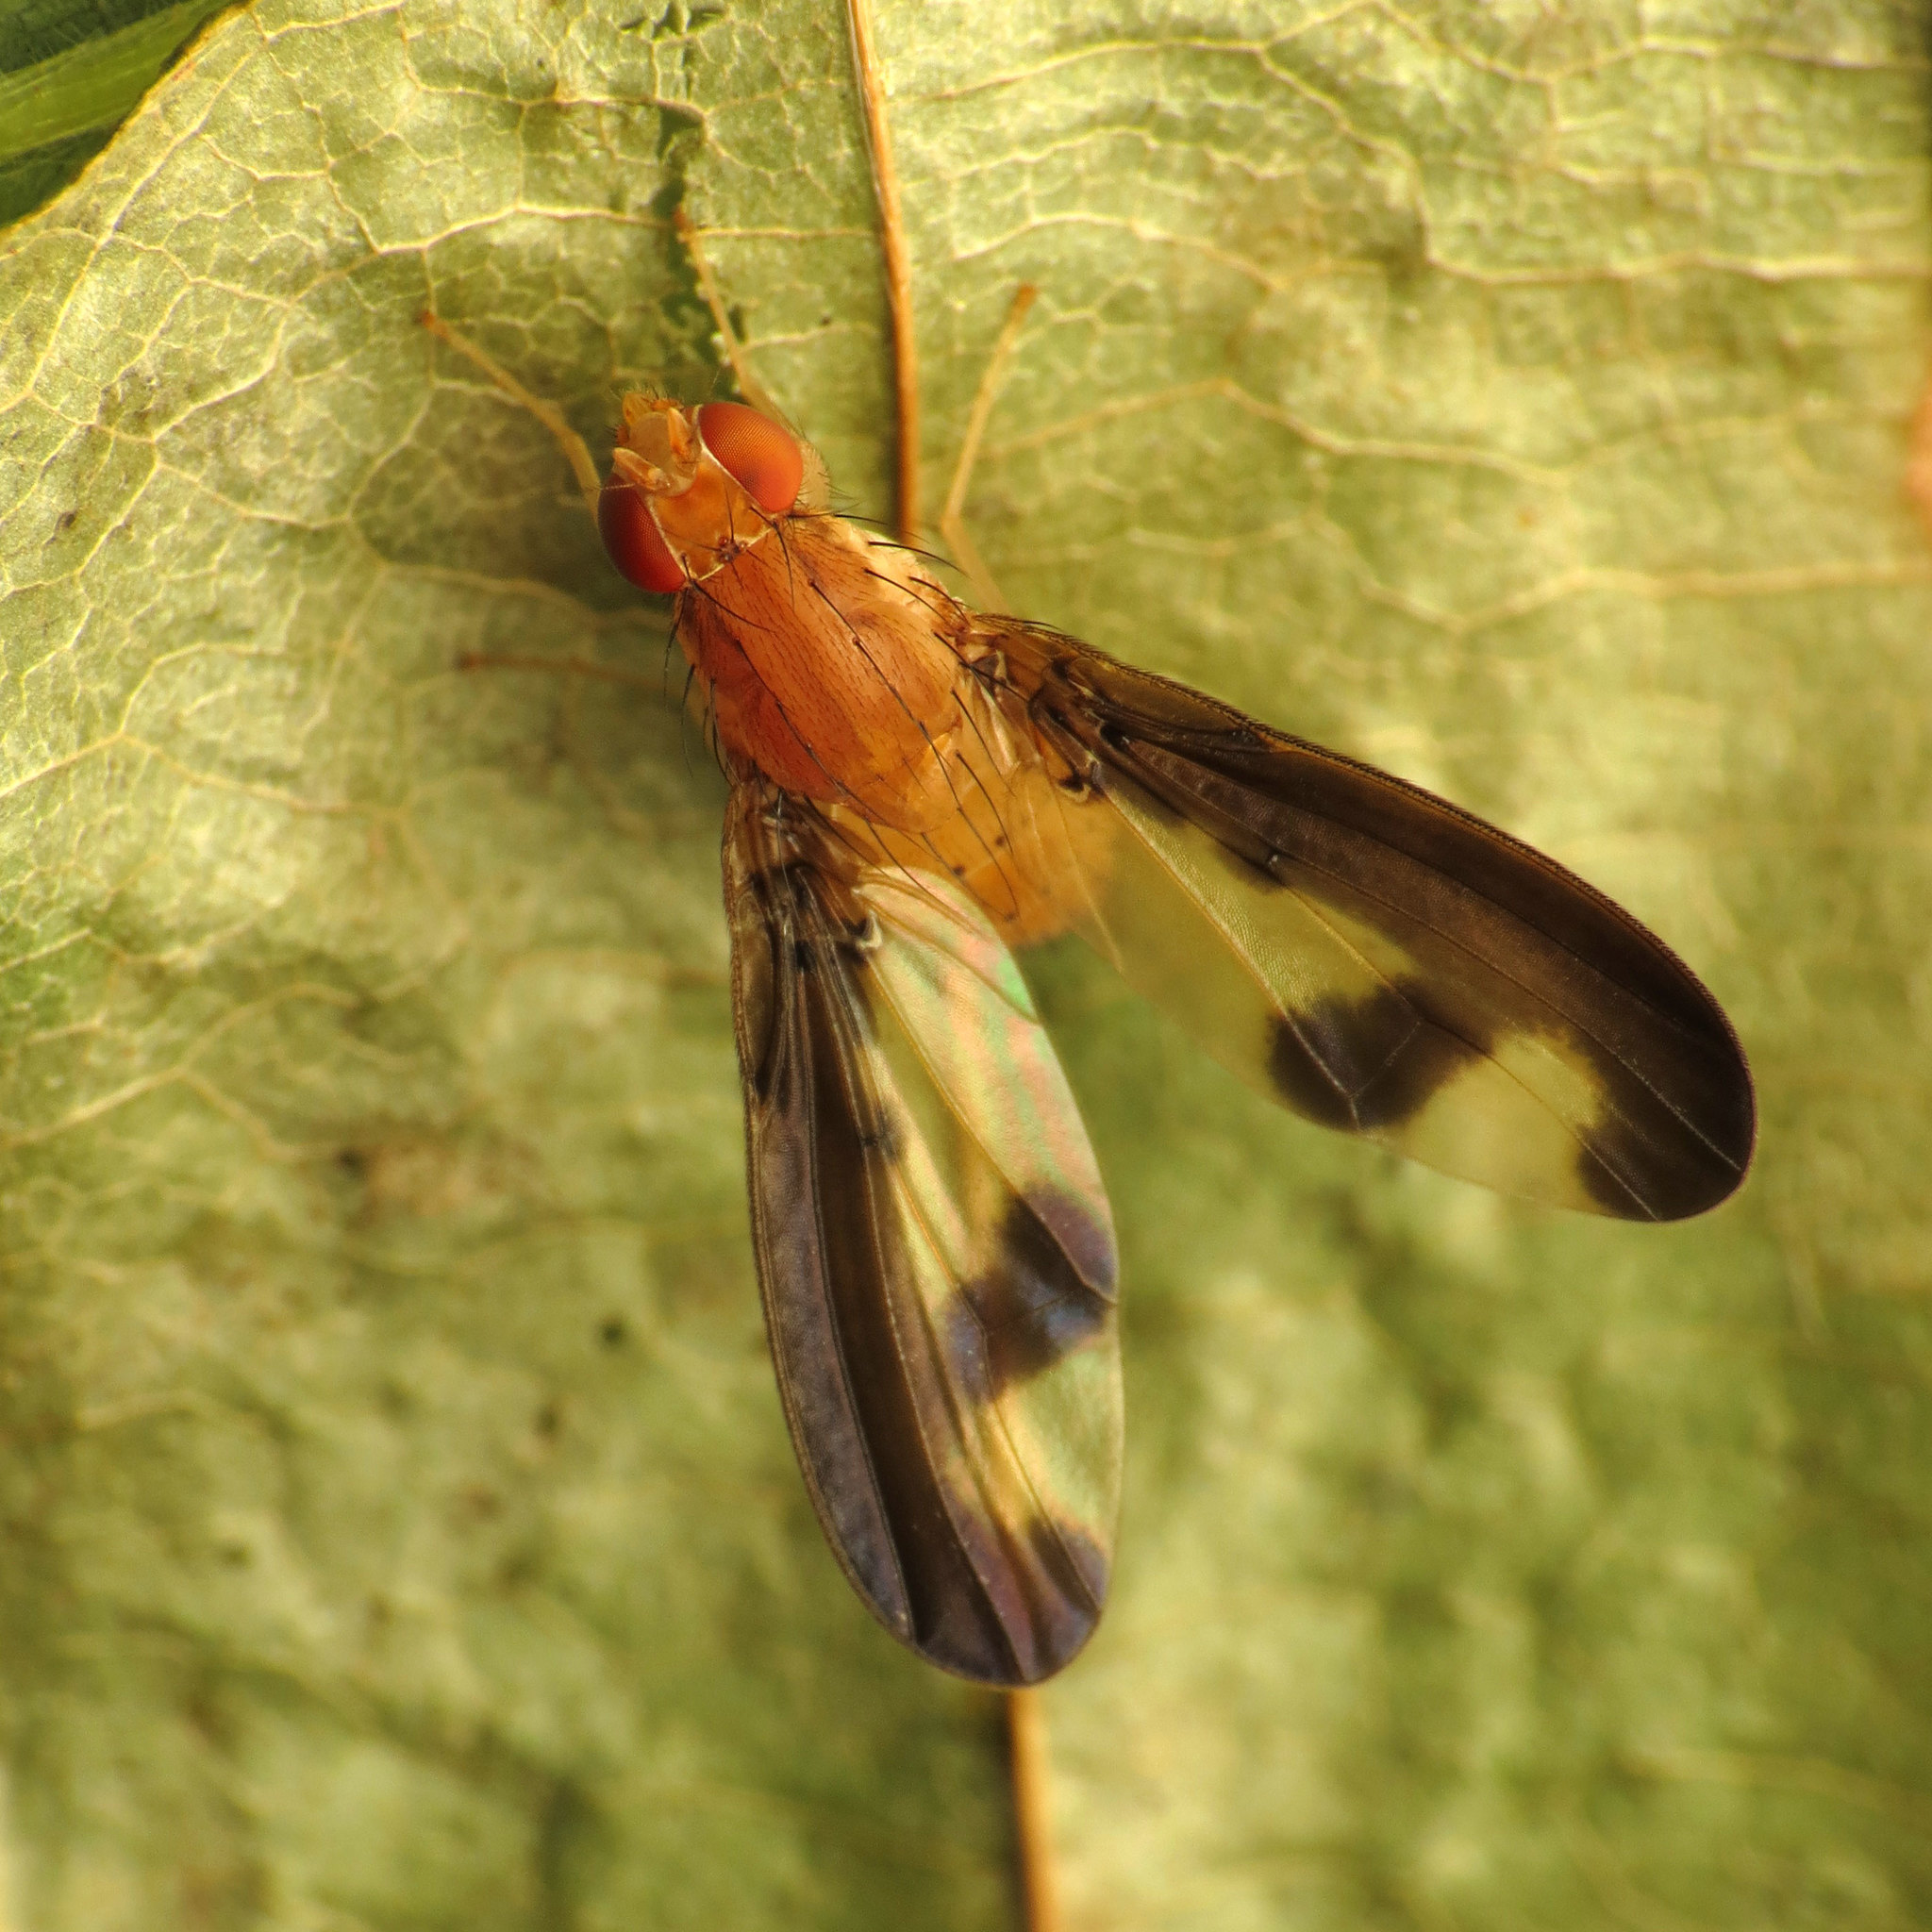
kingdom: Animalia
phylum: Arthropoda
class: Insecta
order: Diptera
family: Pallopteridae
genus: Toxonevra
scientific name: Toxonevra superba
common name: Antlered flutter fly
